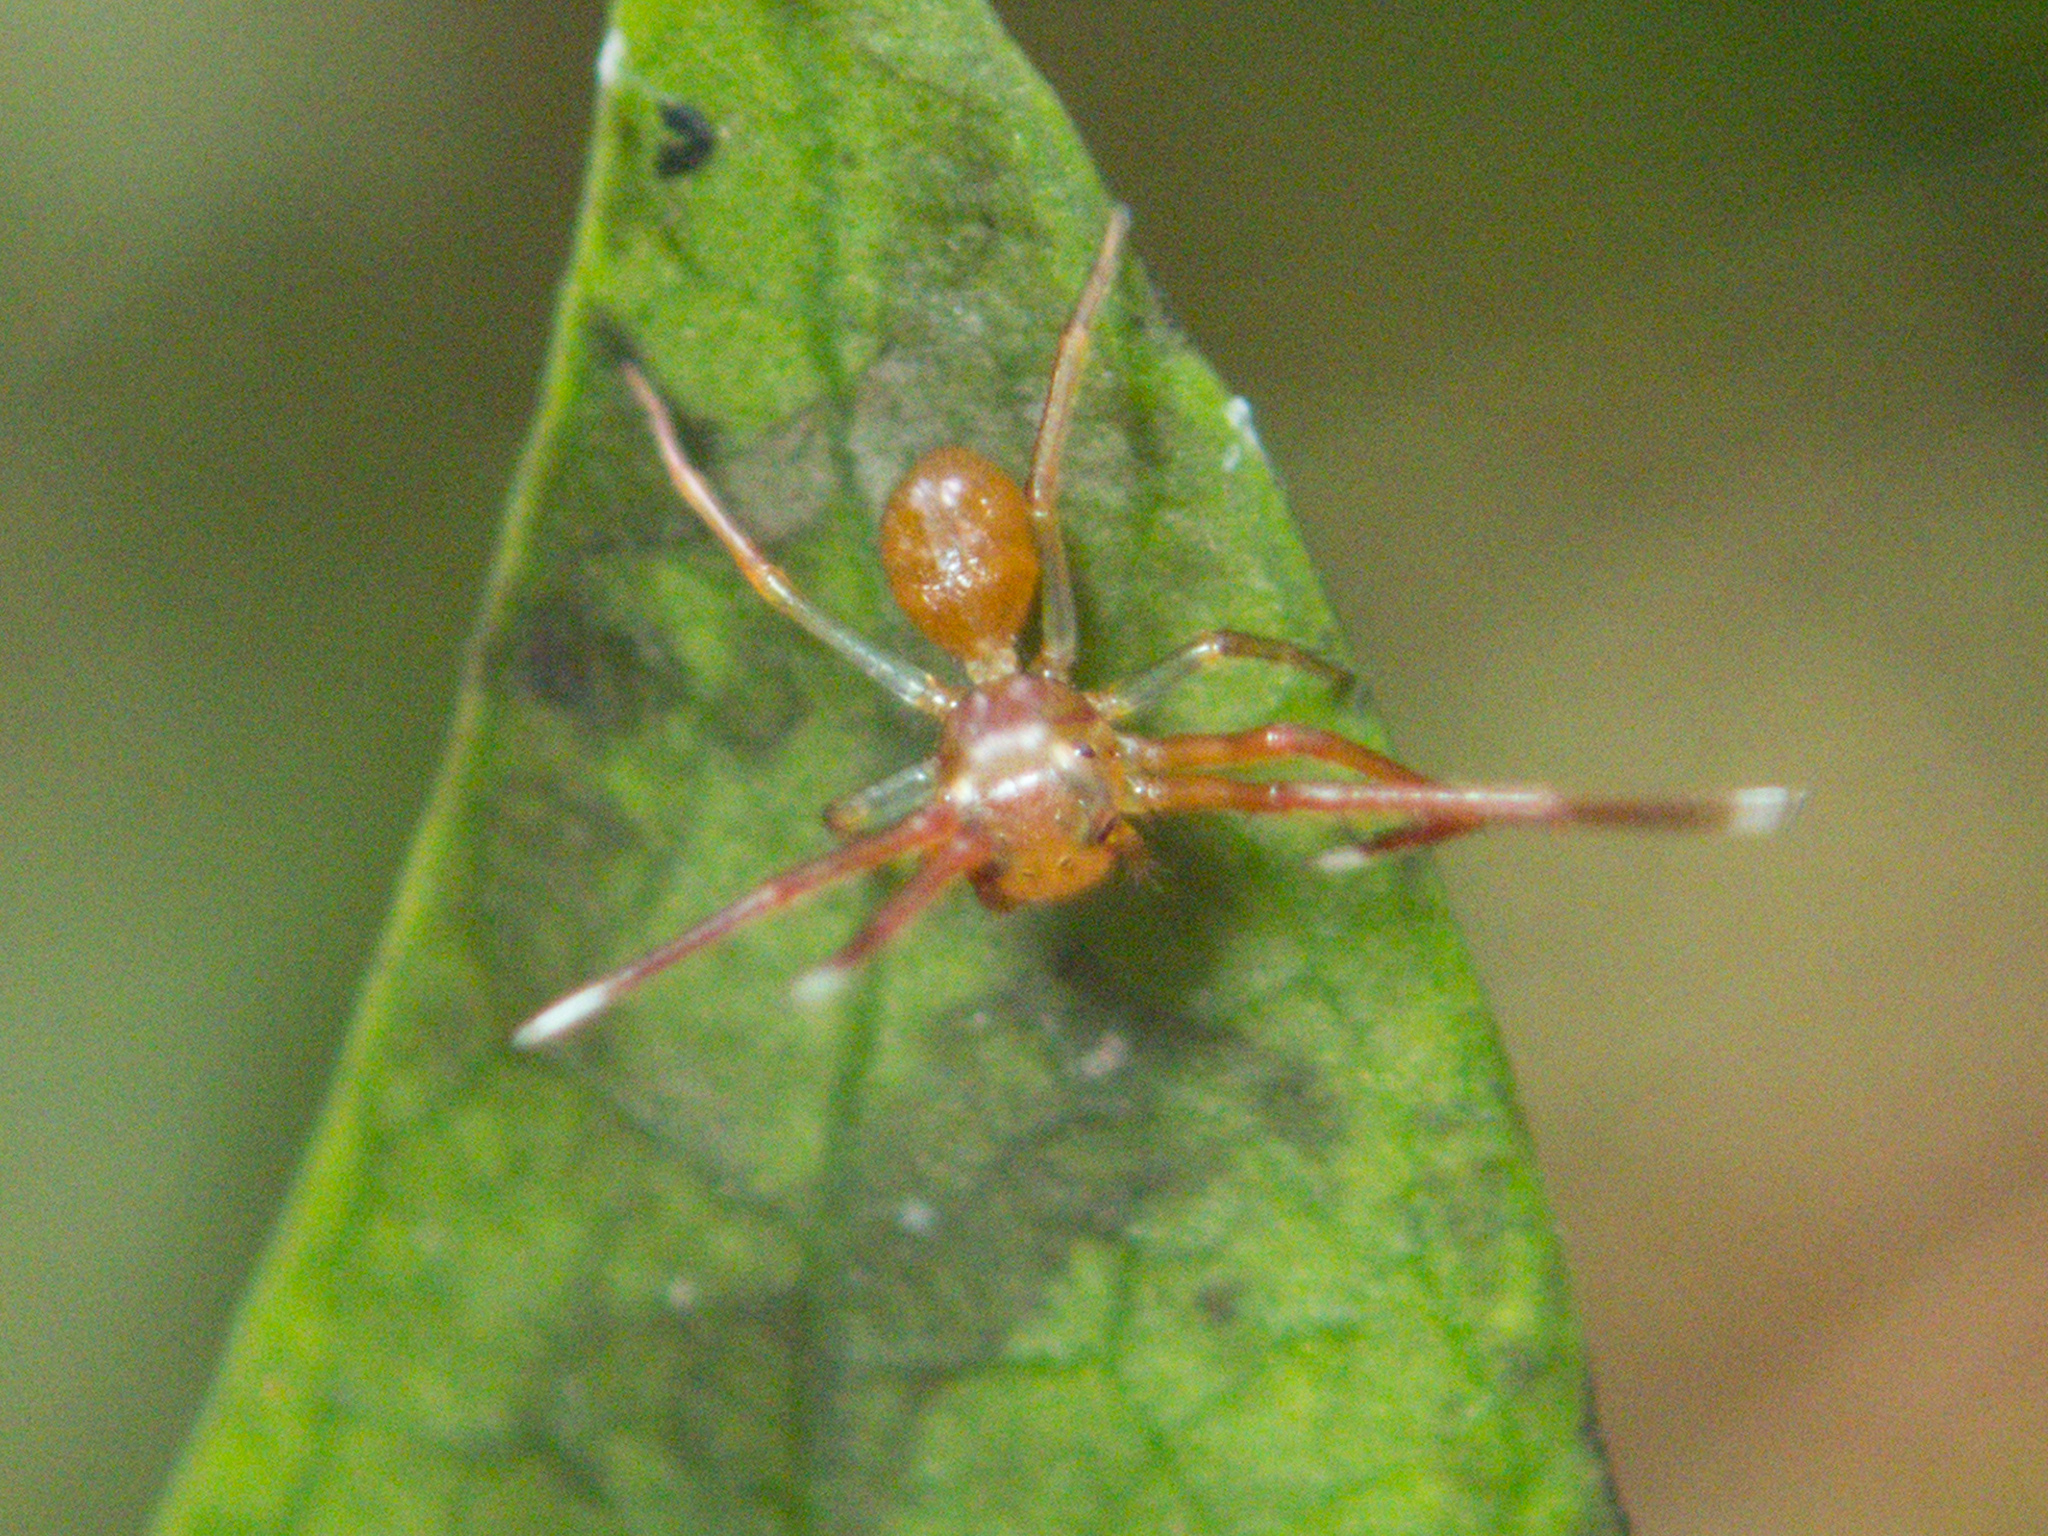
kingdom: Animalia
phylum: Arthropoda
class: Arachnida
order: Araneae
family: Thomisidae
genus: Amyciaea
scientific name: Amyciaea forticeps
